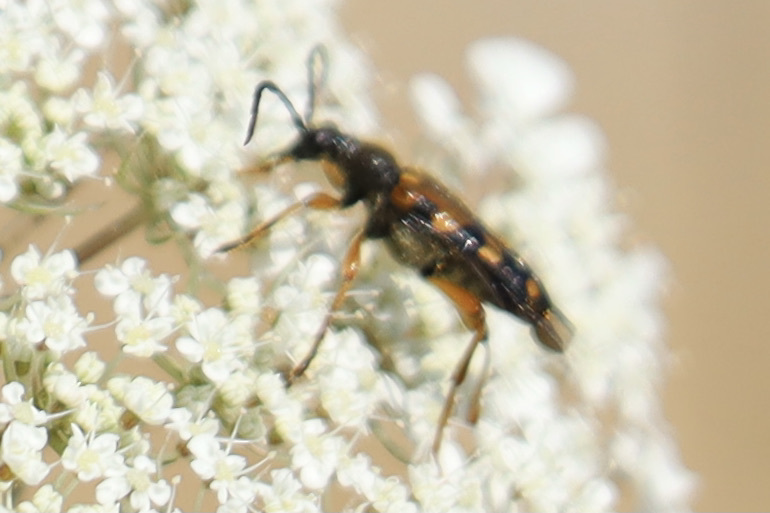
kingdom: Animalia
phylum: Arthropoda
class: Insecta
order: Coleoptera
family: Cerambycidae
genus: Xestoleptura
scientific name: Xestoleptura crassipes
